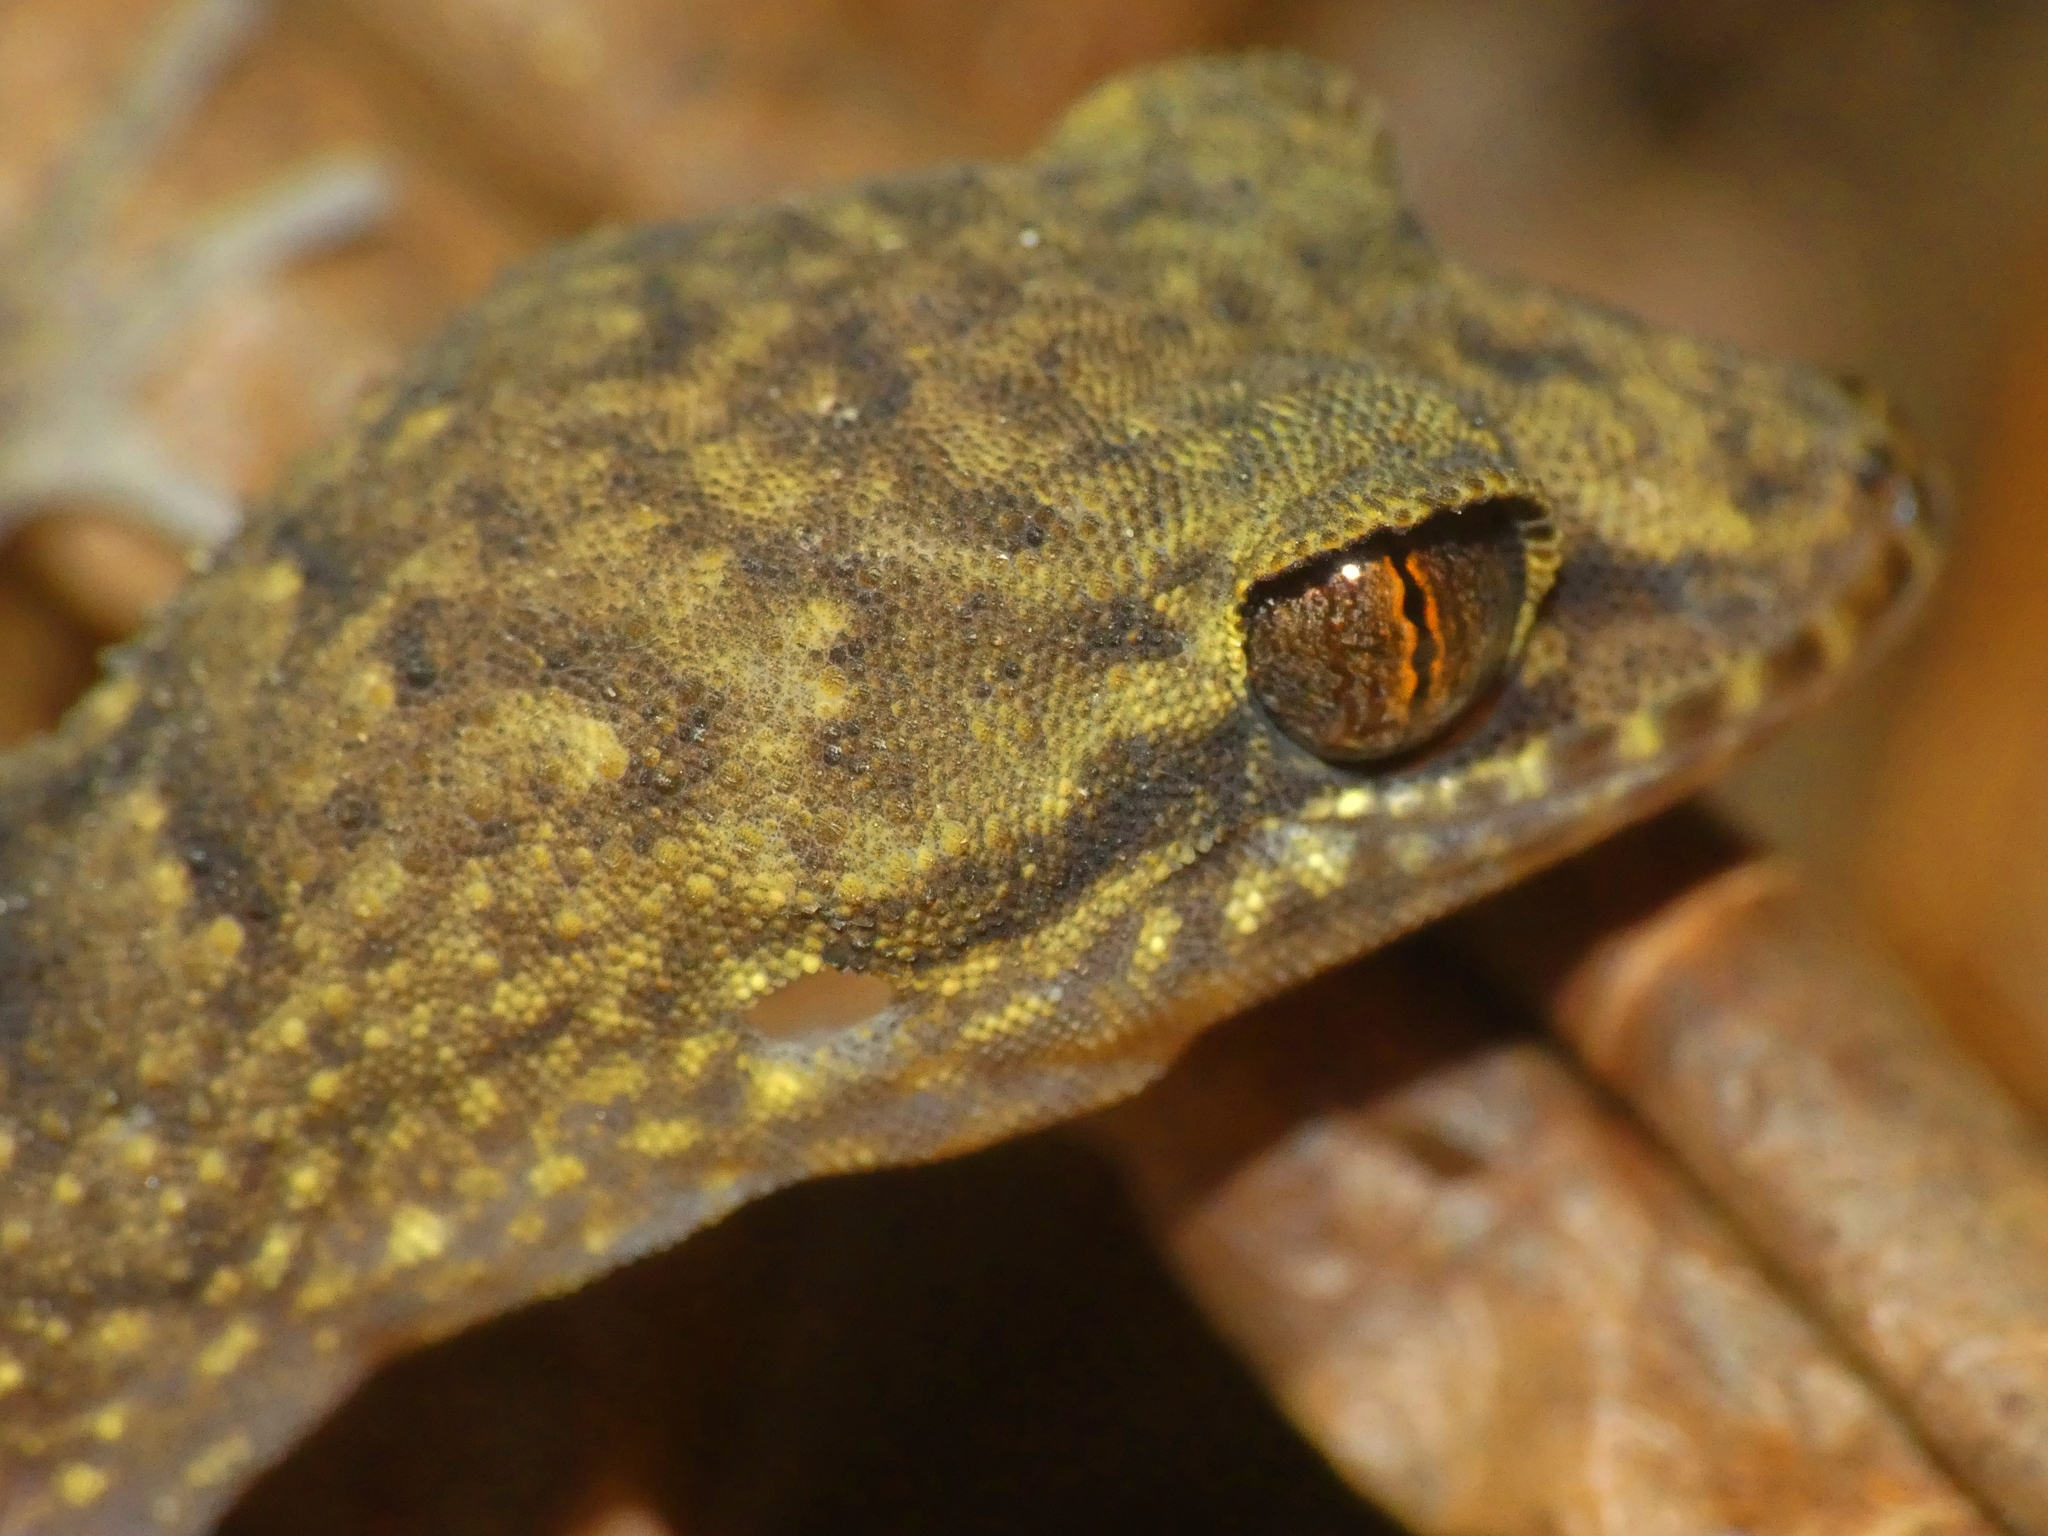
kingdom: Animalia
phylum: Chordata
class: Squamata
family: Gekkonidae
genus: Nactus
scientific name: Nactus cheverti
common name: Chevert's gecko
